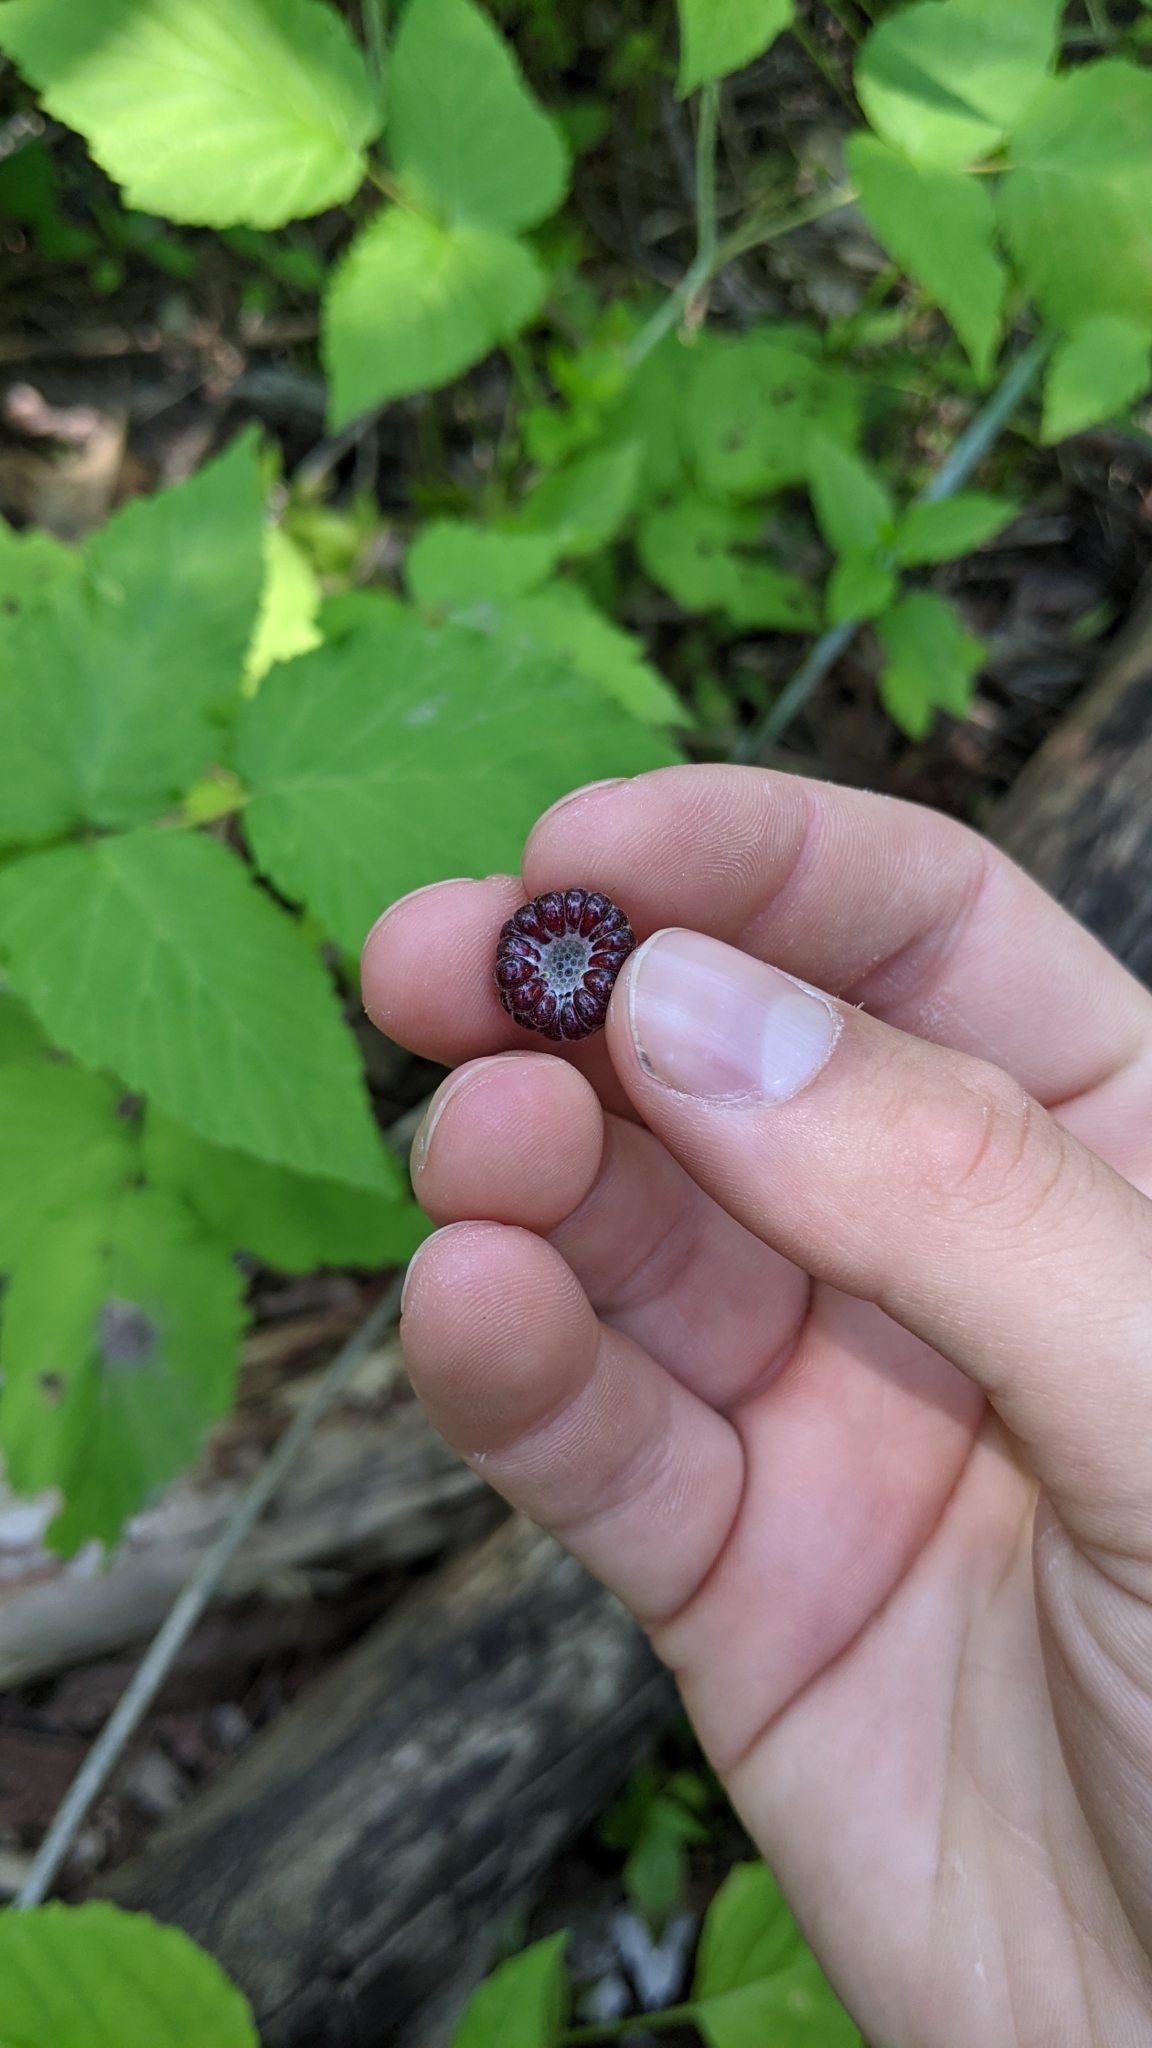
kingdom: Plantae
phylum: Tracheophyta
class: Magnoliopsida
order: Rosales
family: Rosaceae
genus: Rubus
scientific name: Rubus occidentalis
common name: Black raspberry
